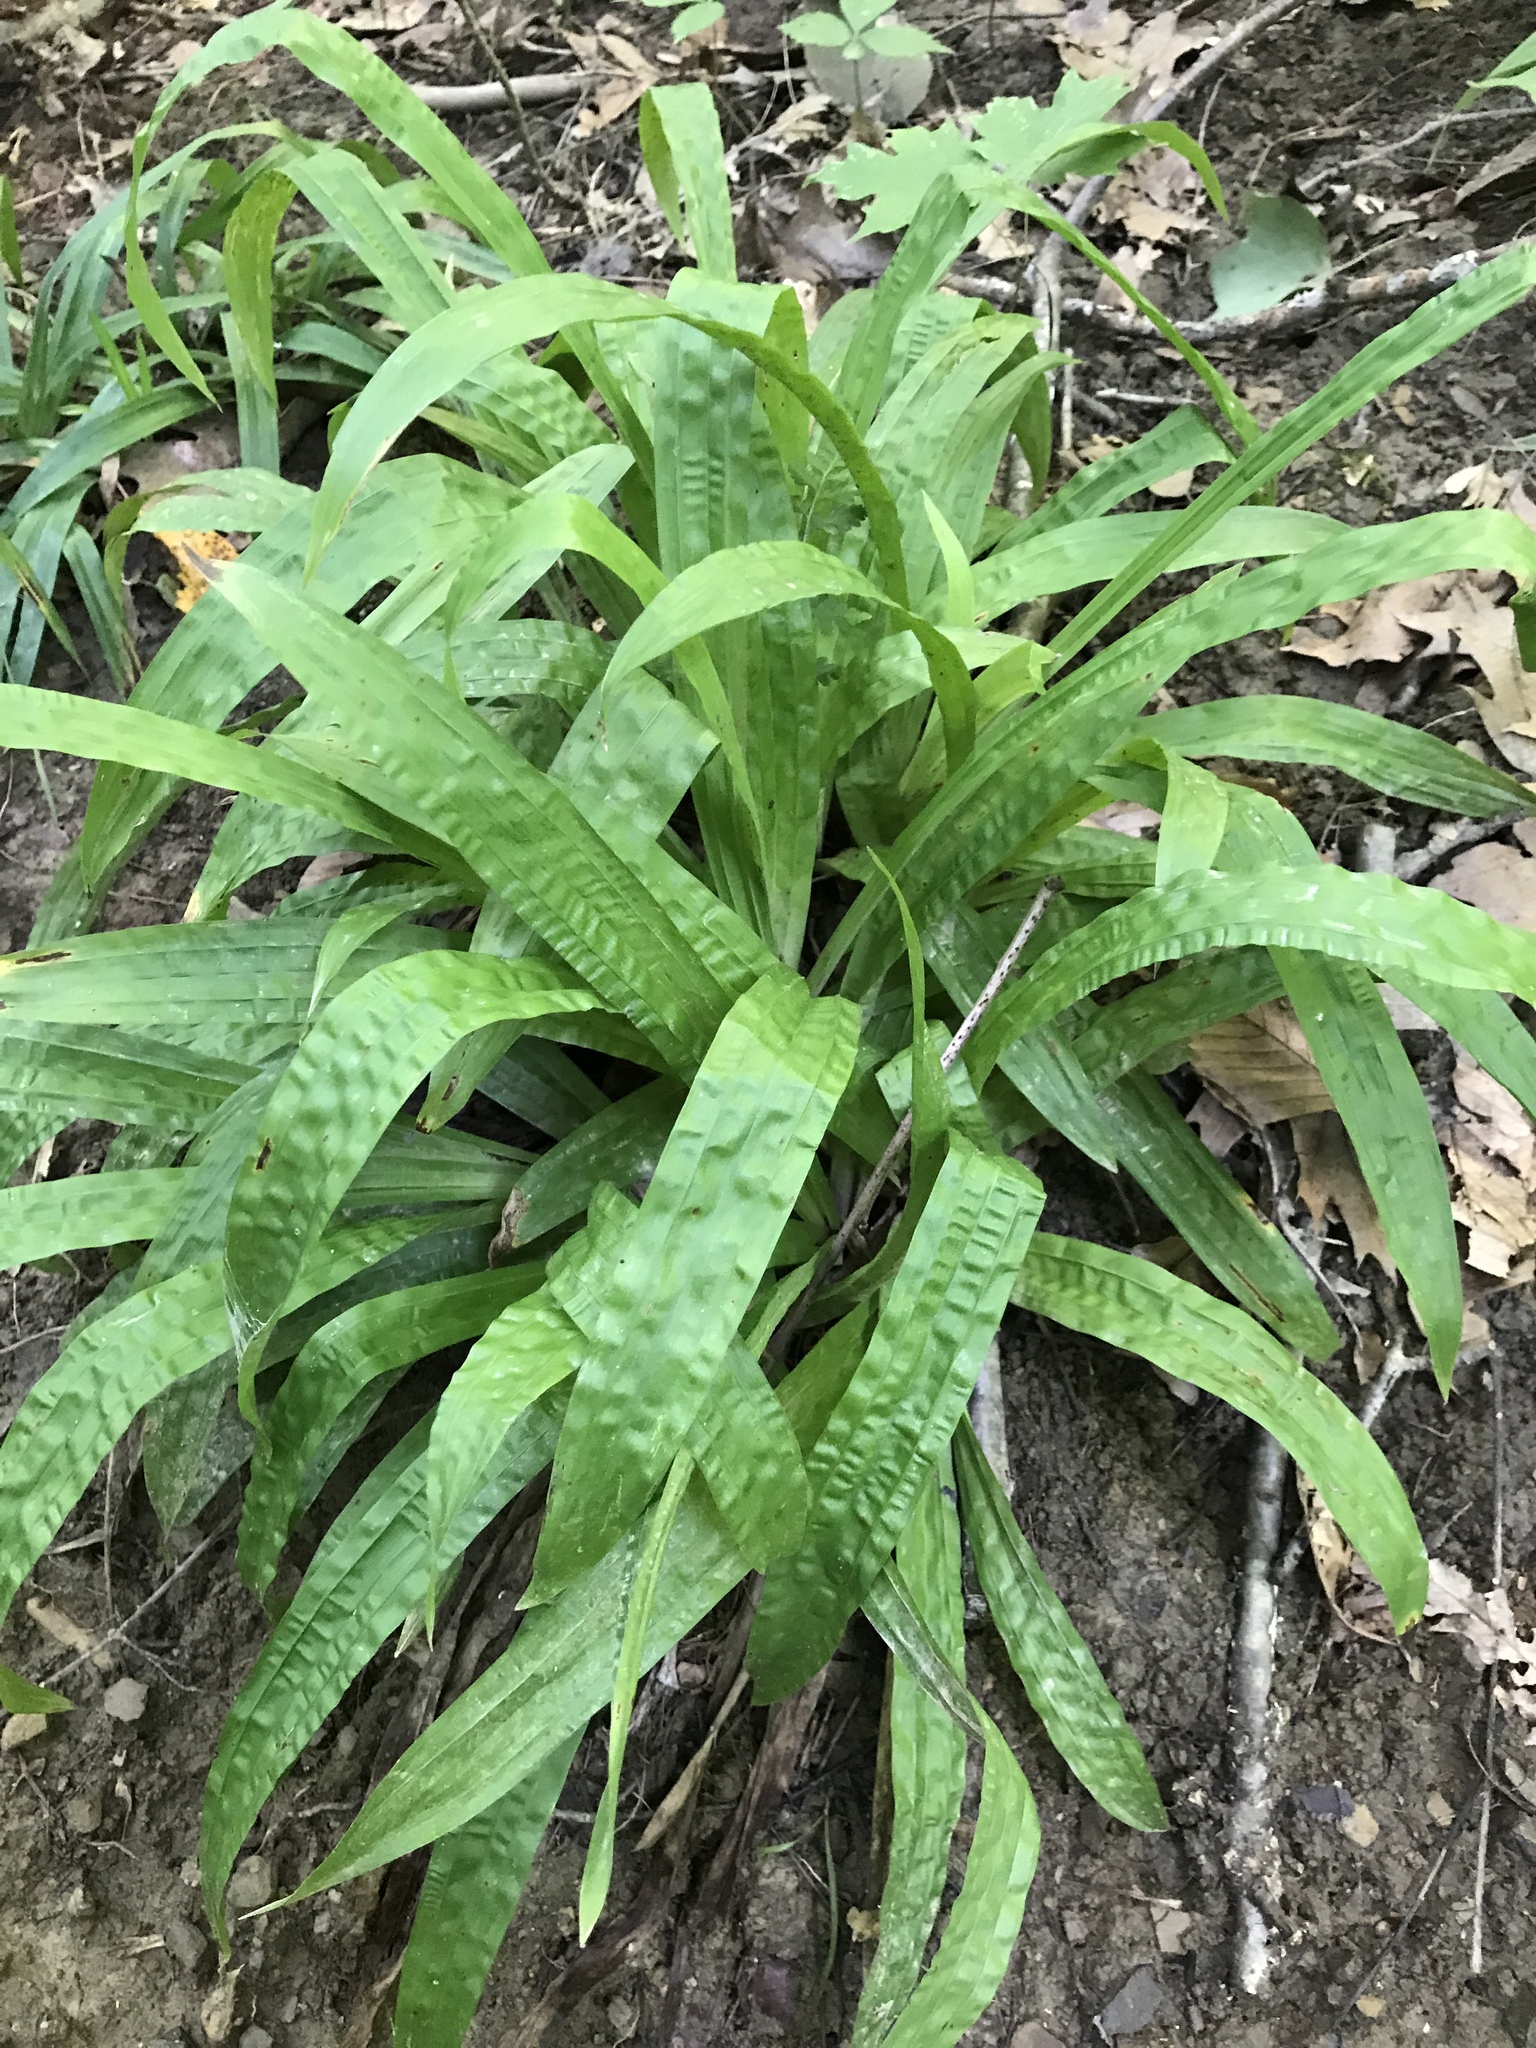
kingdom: Plantae
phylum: Tracheophyta
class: Liliopsida
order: Poales
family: Cyperaceae
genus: Carex
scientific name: Carex plantaginea
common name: Plantain-leaved sedge
